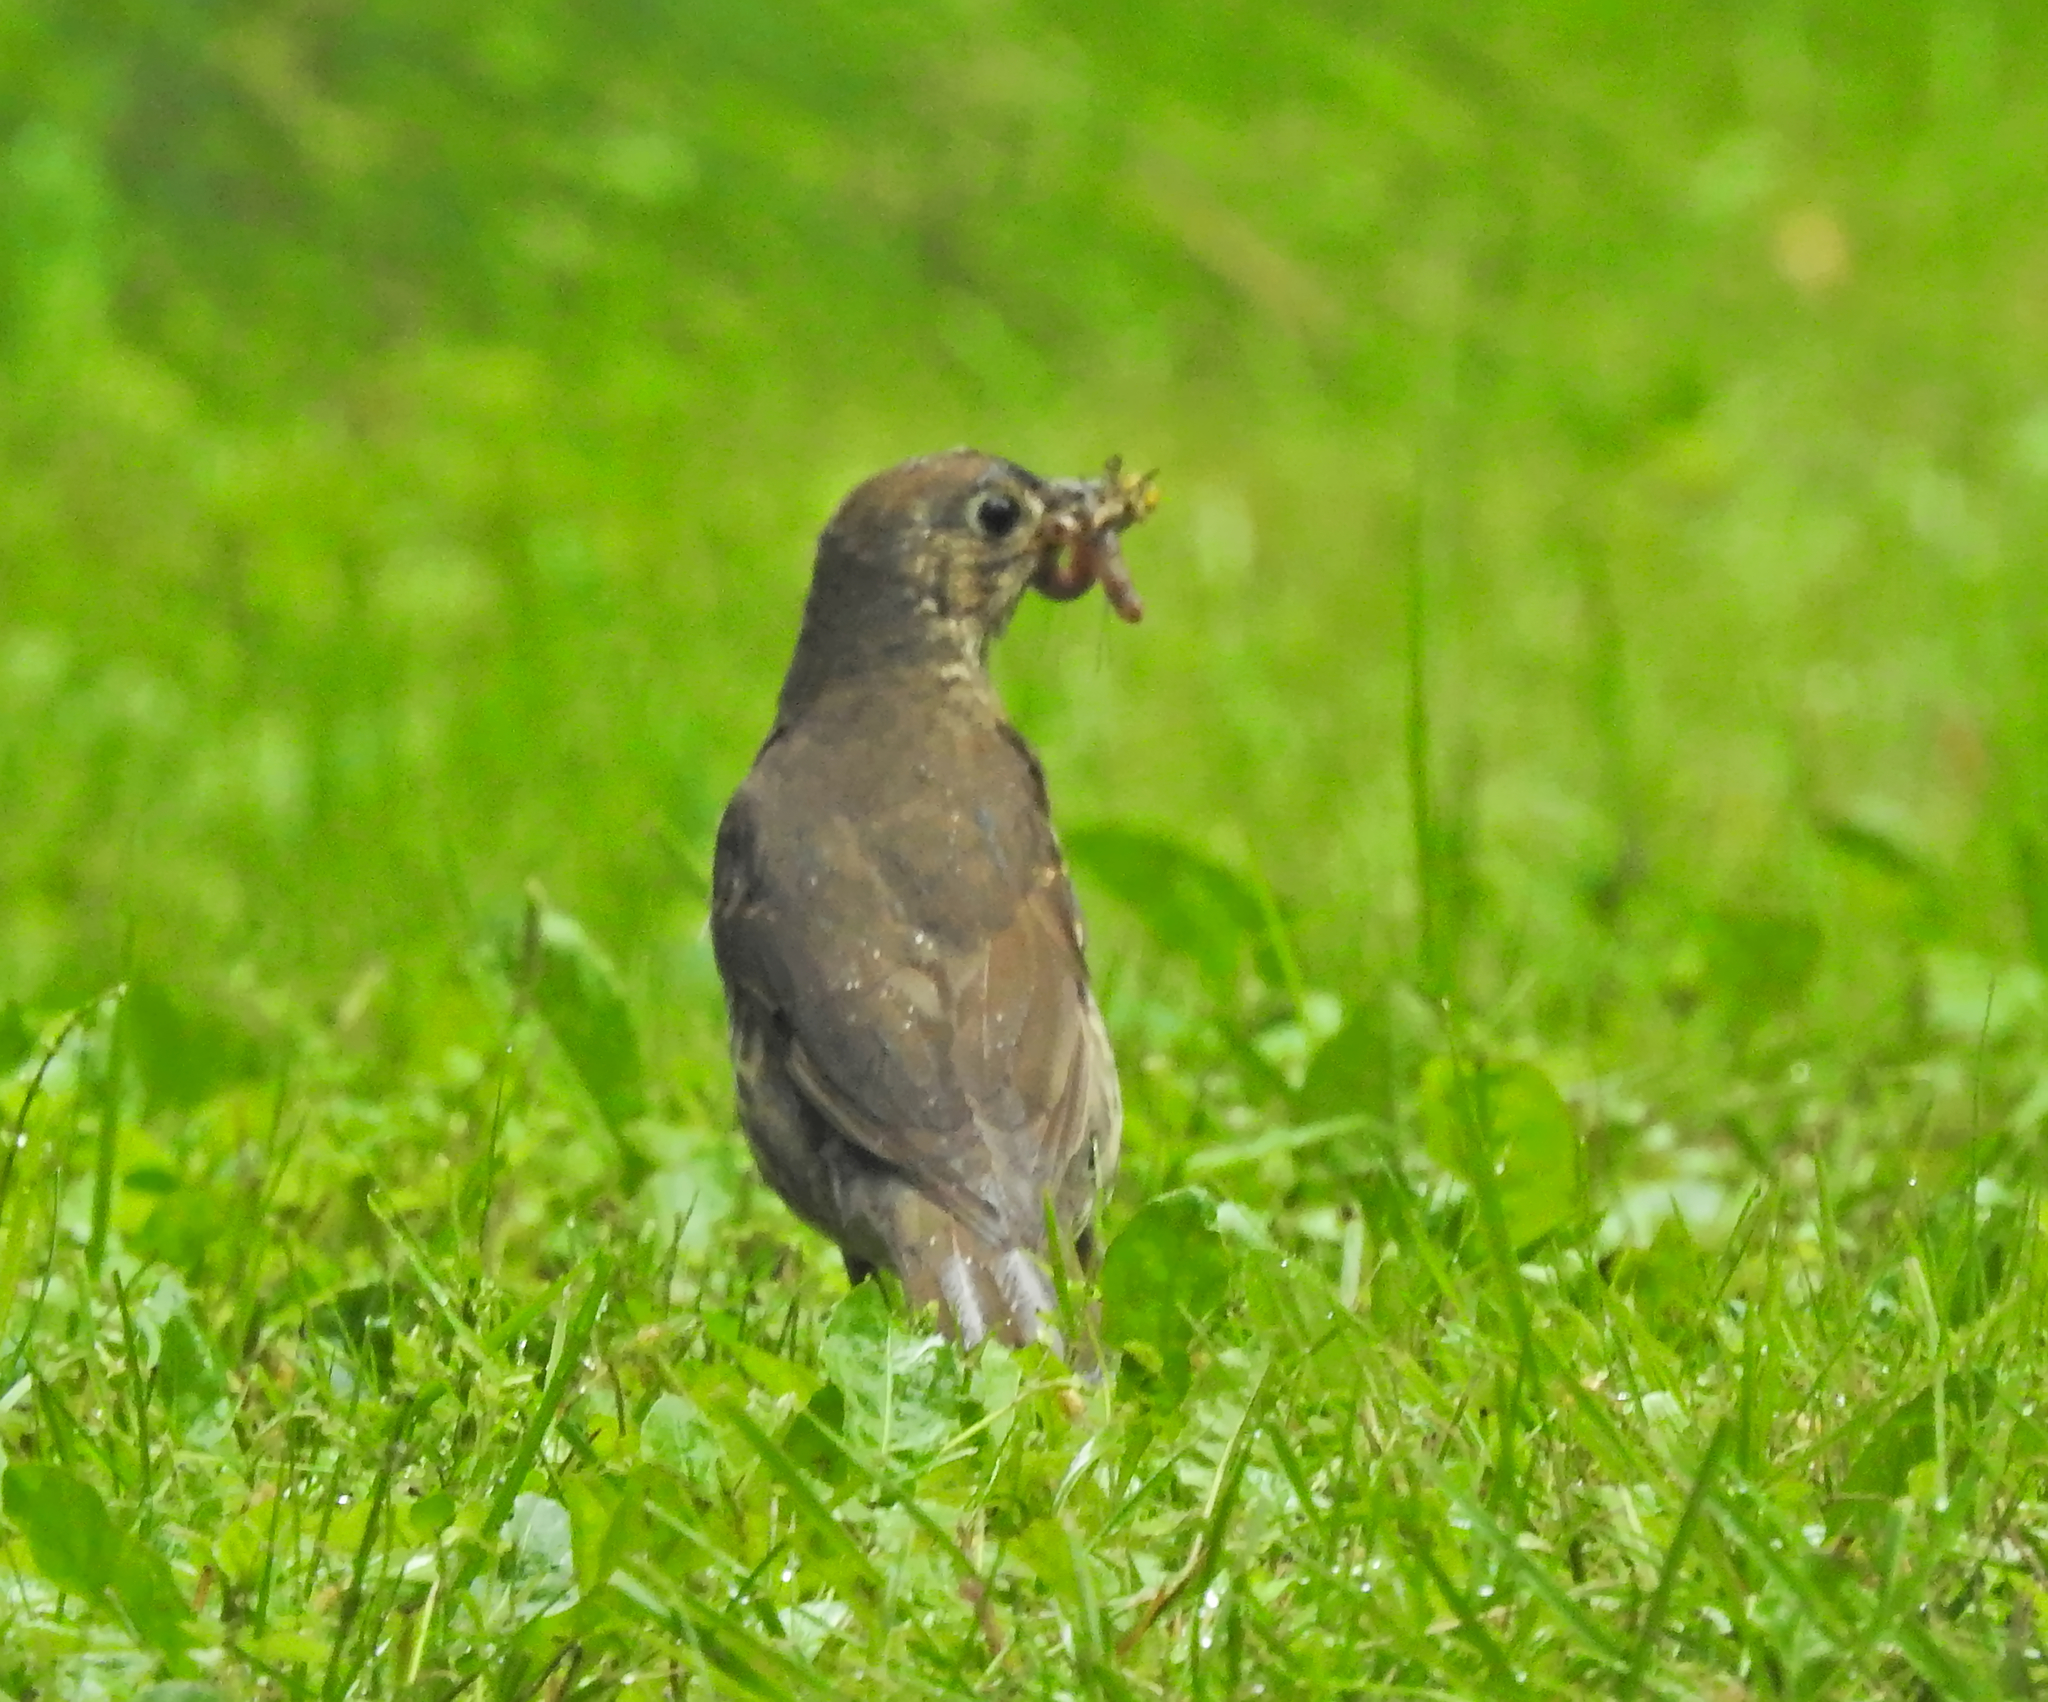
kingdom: Animalia
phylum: Chordata
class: Aves
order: Passeriformes
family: Turdidae
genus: Turdus
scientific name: Turdus philomelos
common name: Song thrush
